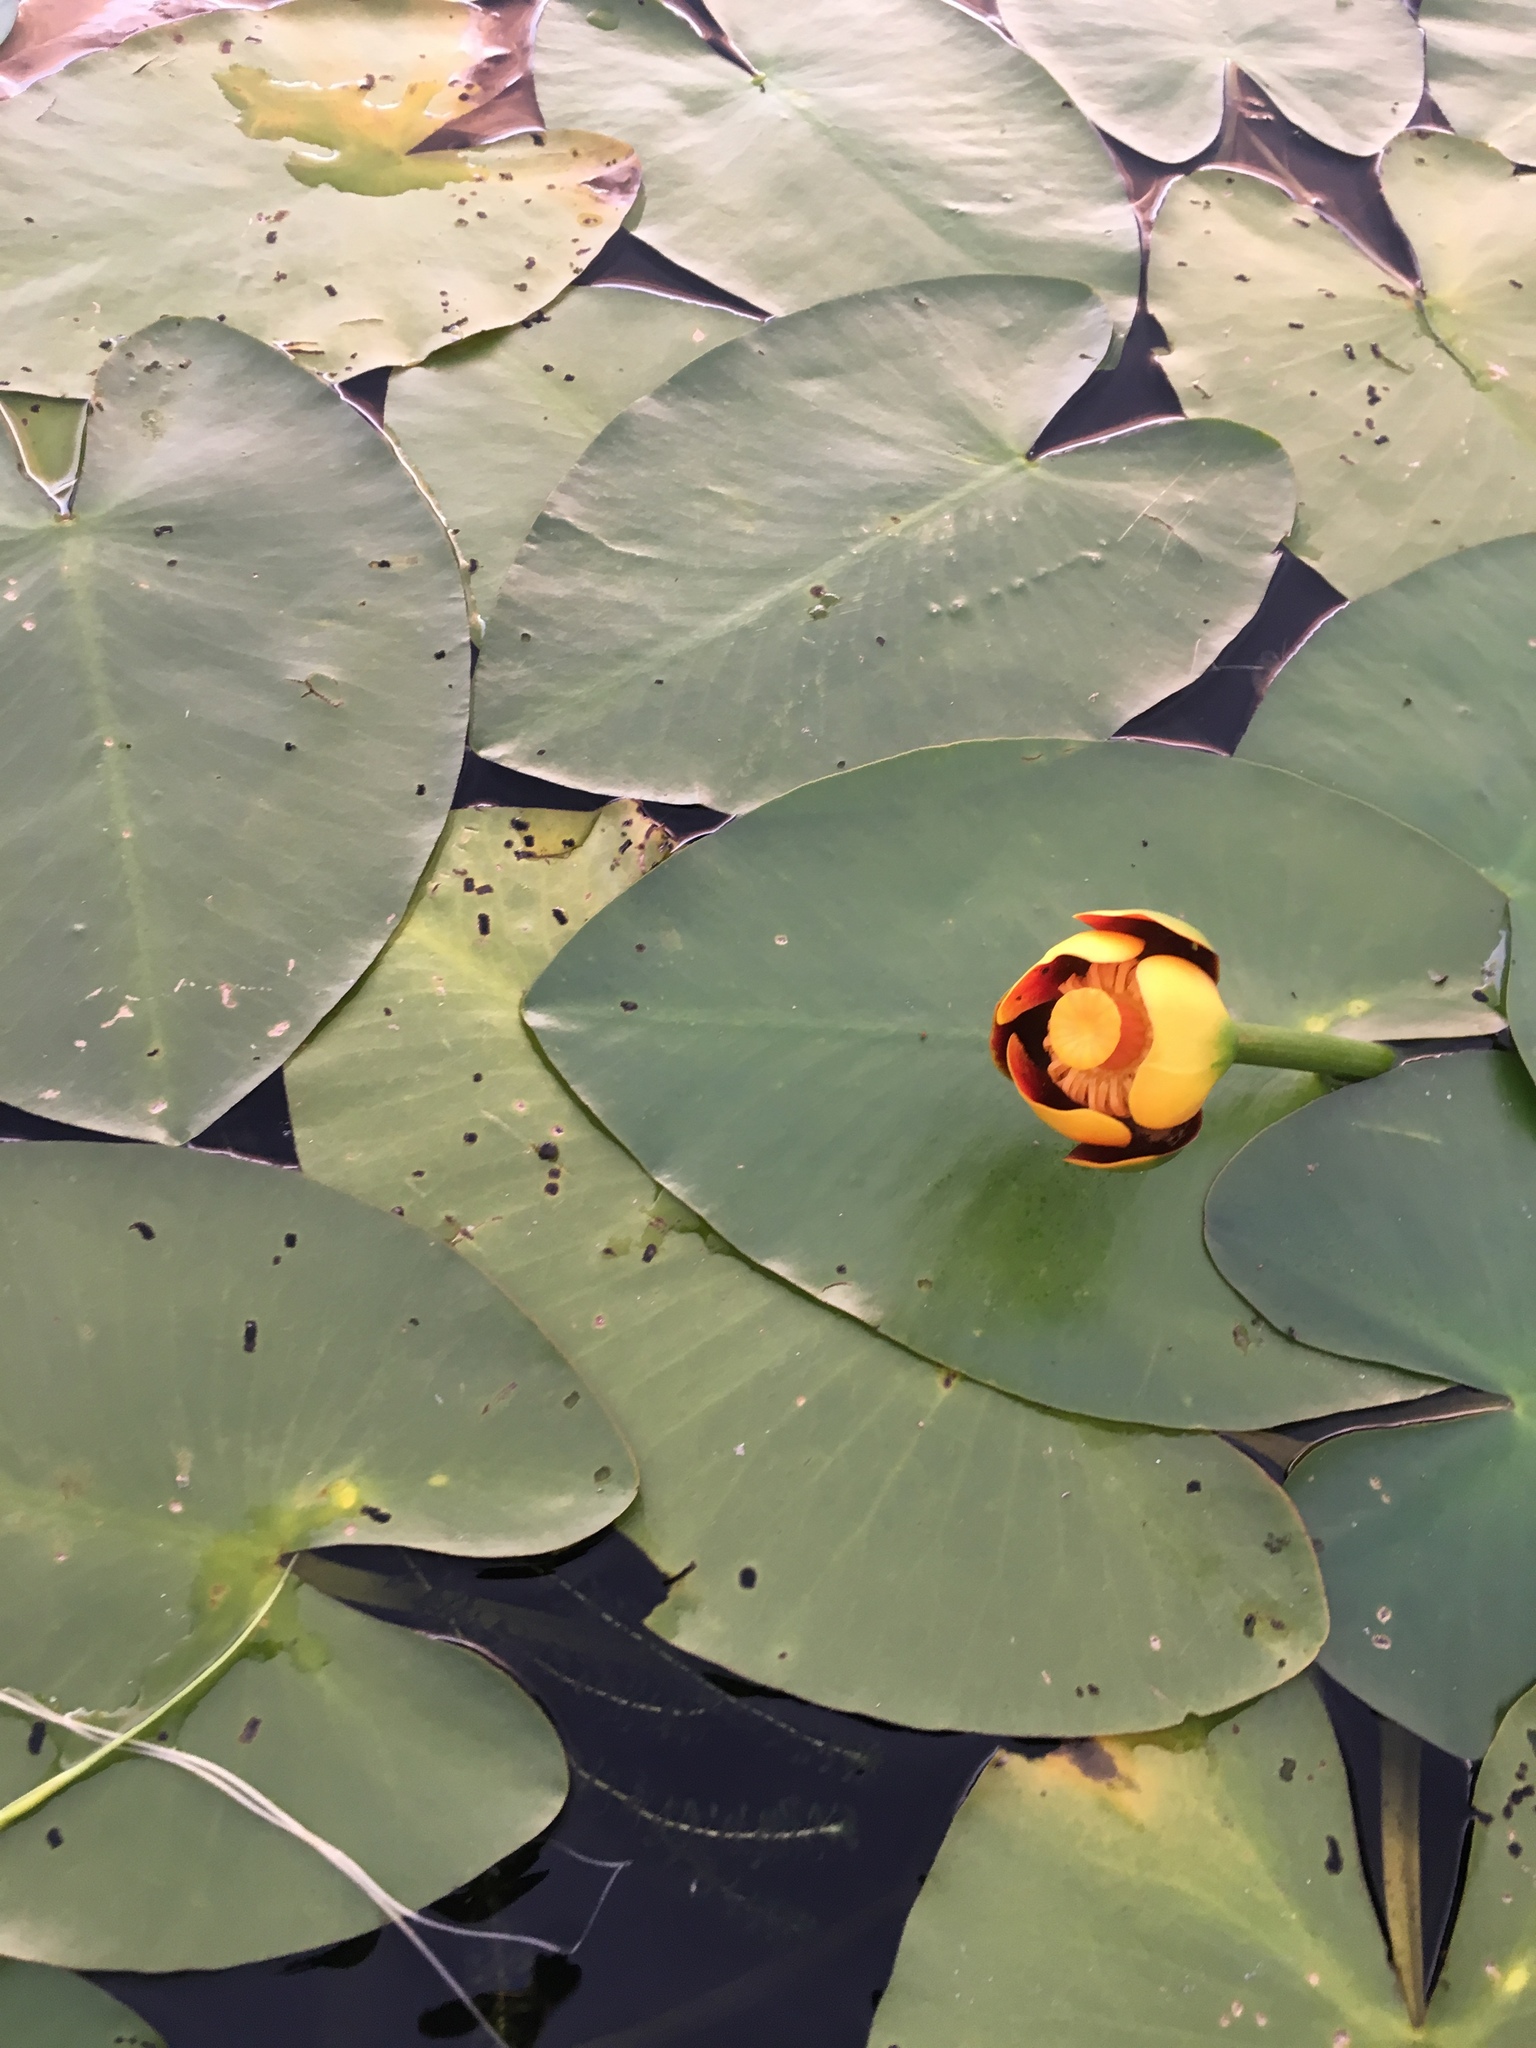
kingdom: Plantae
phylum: Tracheophyta
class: Magnoliopsida
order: Nymphaeales
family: Nymphaeaceae
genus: Nuphar
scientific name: Nuphar variegata
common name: Beaver-root
